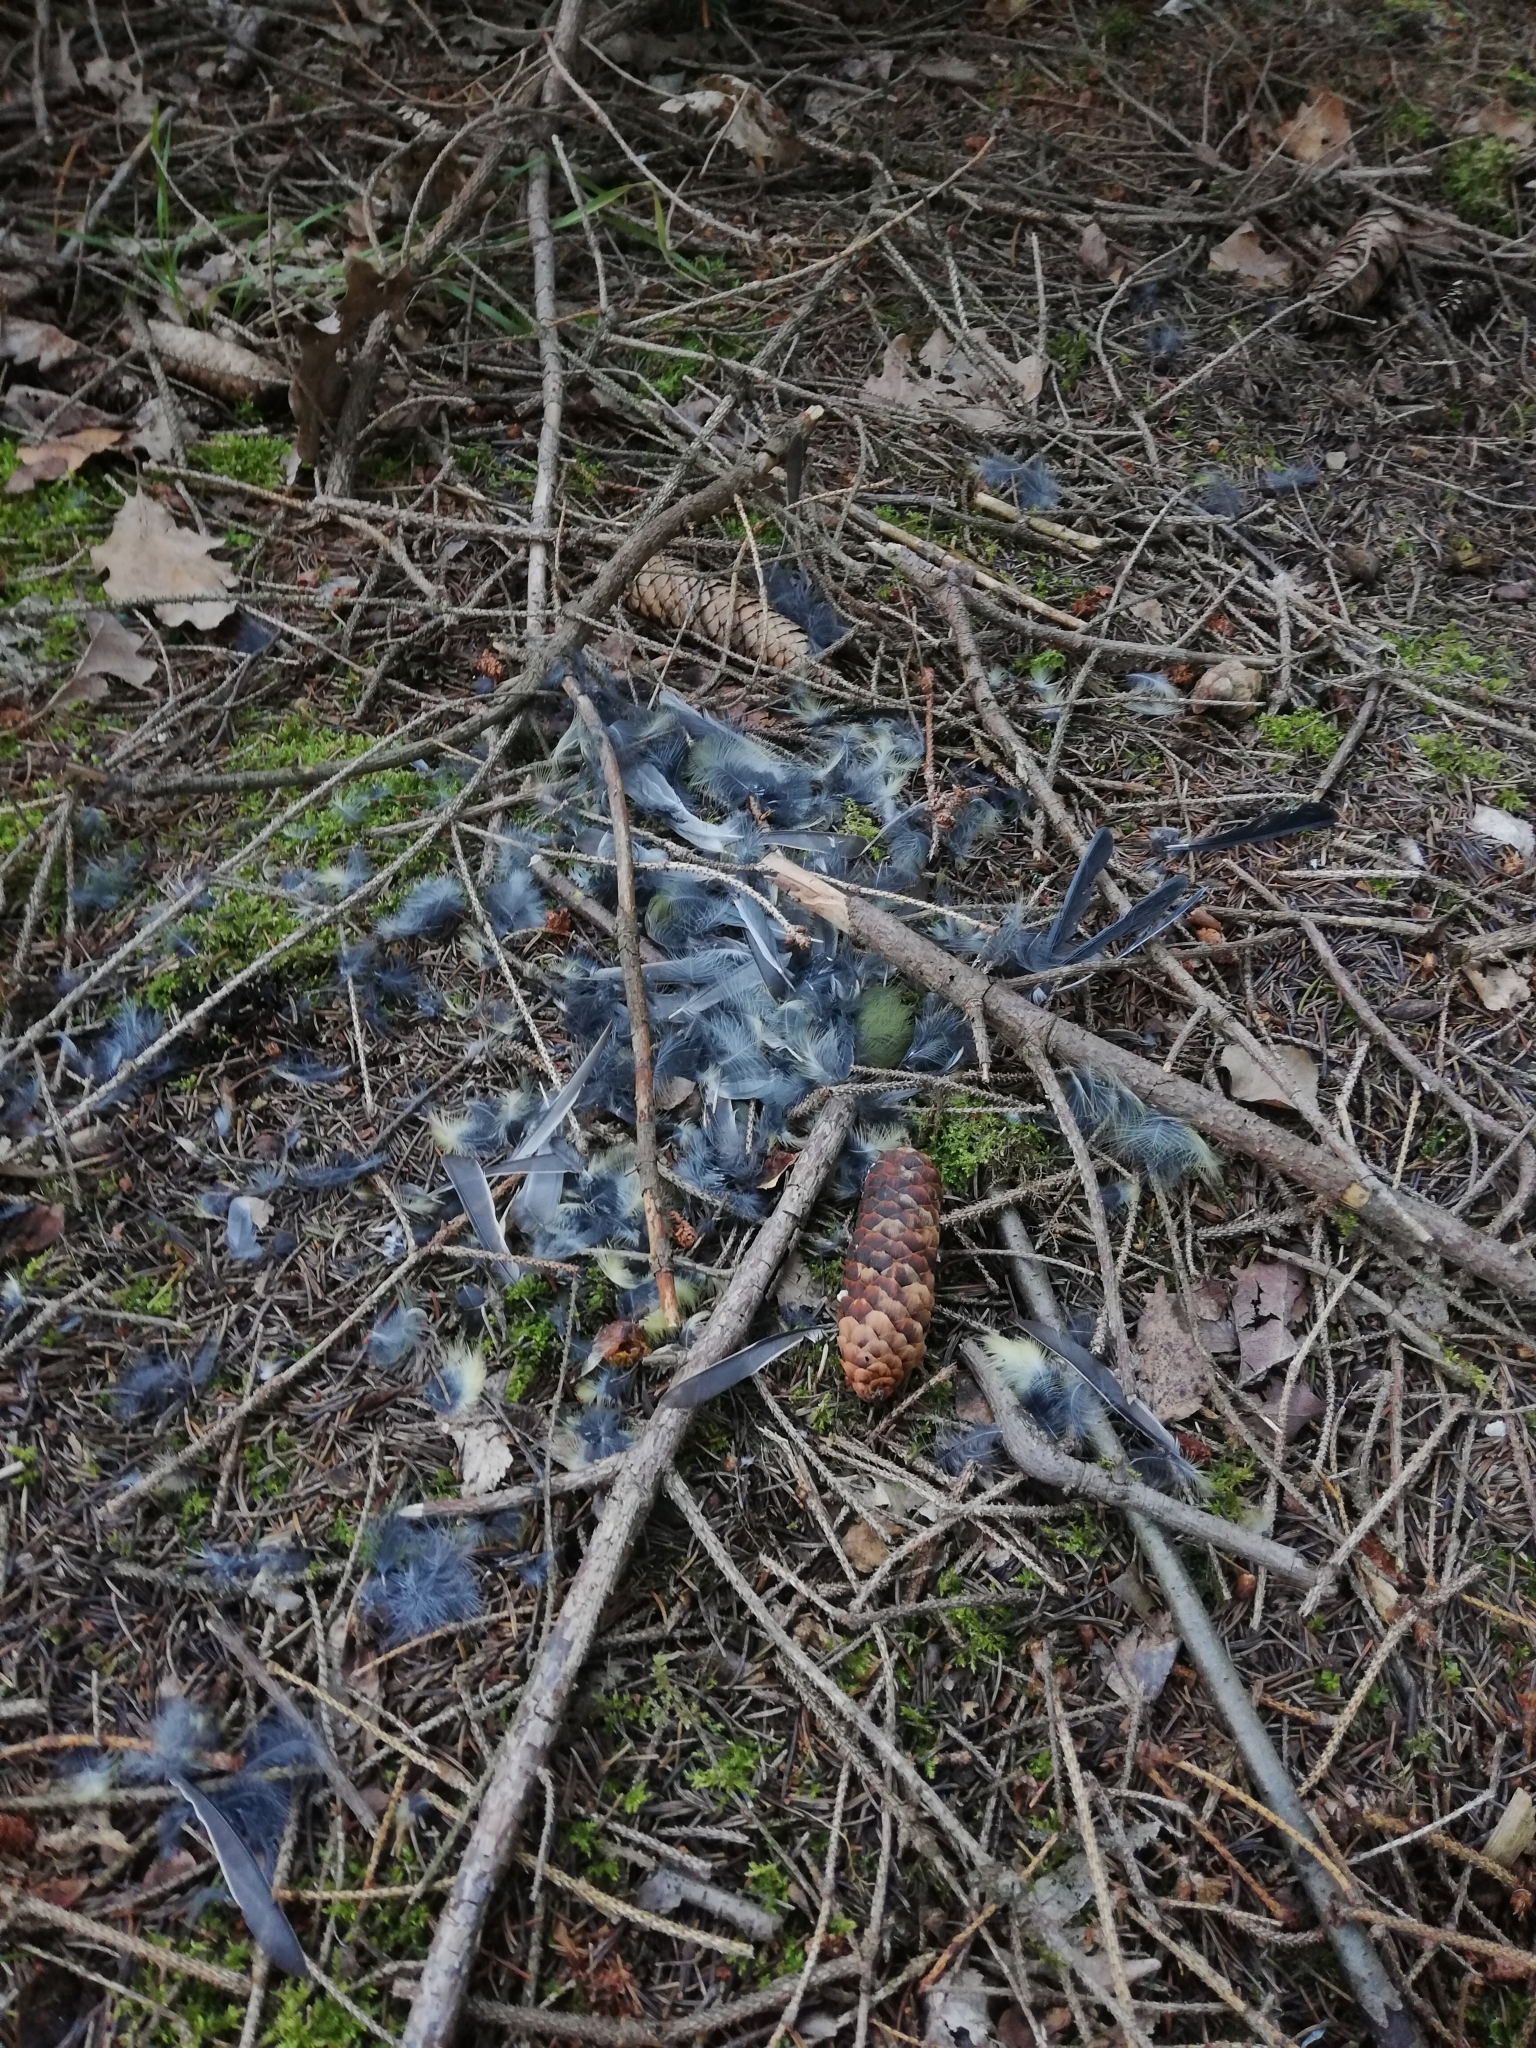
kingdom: Animalia
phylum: Chordata
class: Aves
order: Passeriformes
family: Paridae
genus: Parus
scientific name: Parus major
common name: Great tit
